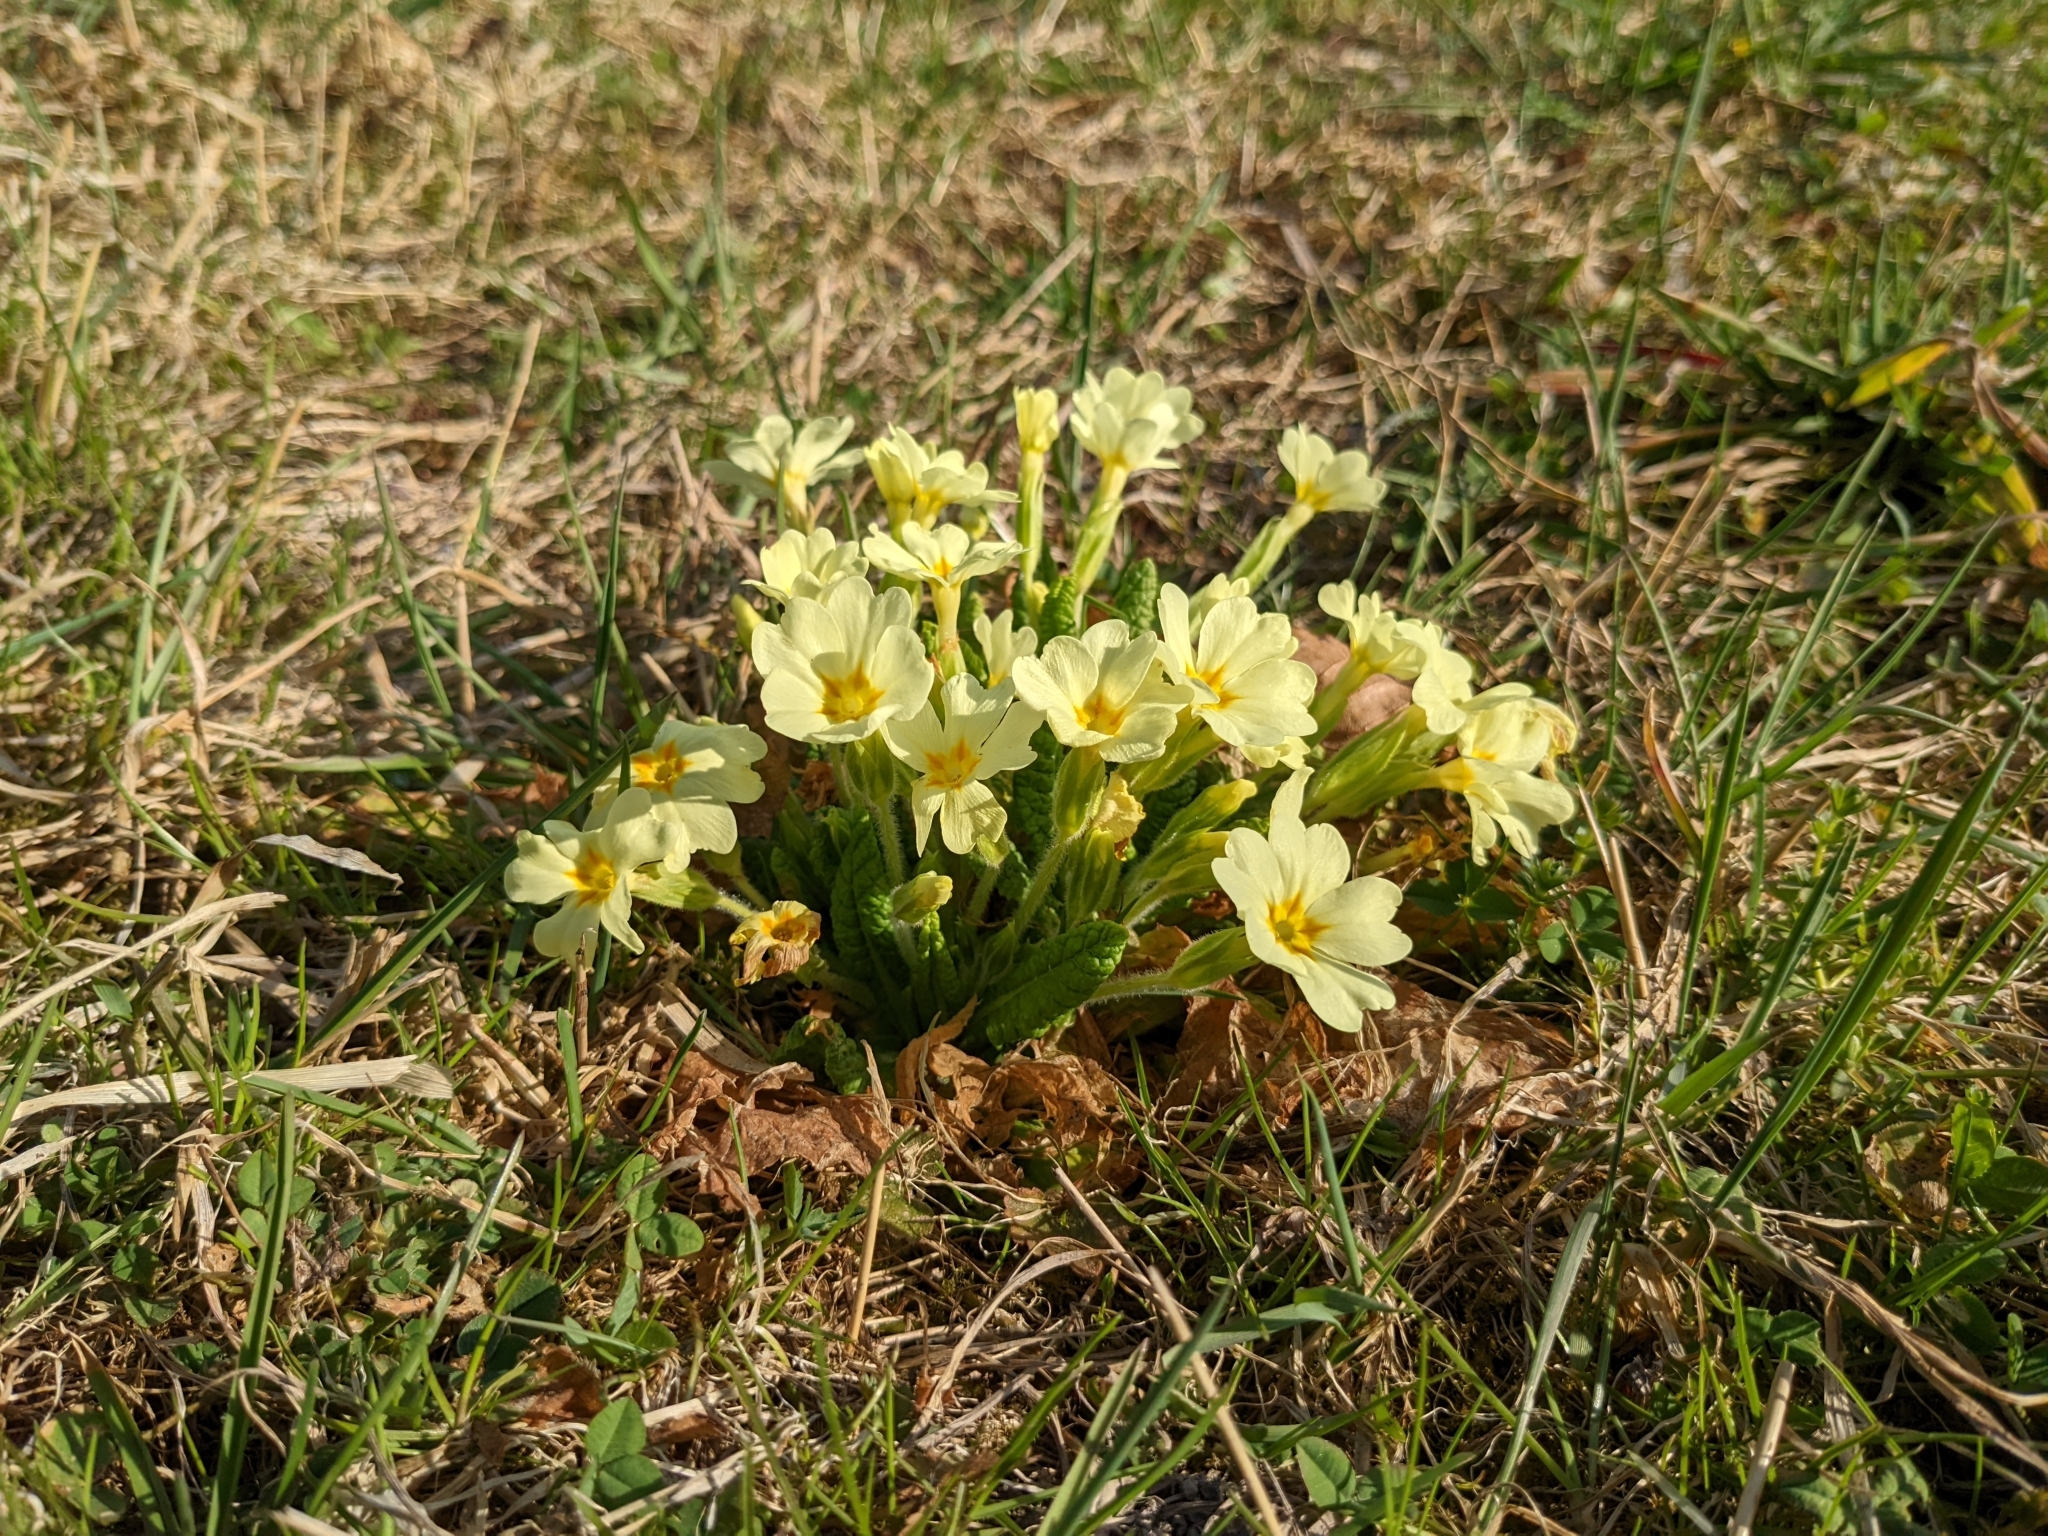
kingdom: Plantae
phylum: Tracheophyta
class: Magnoliopsida
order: Ericales
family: Primulaceae
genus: Primula
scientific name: Primula vulgaris
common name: Primrose
